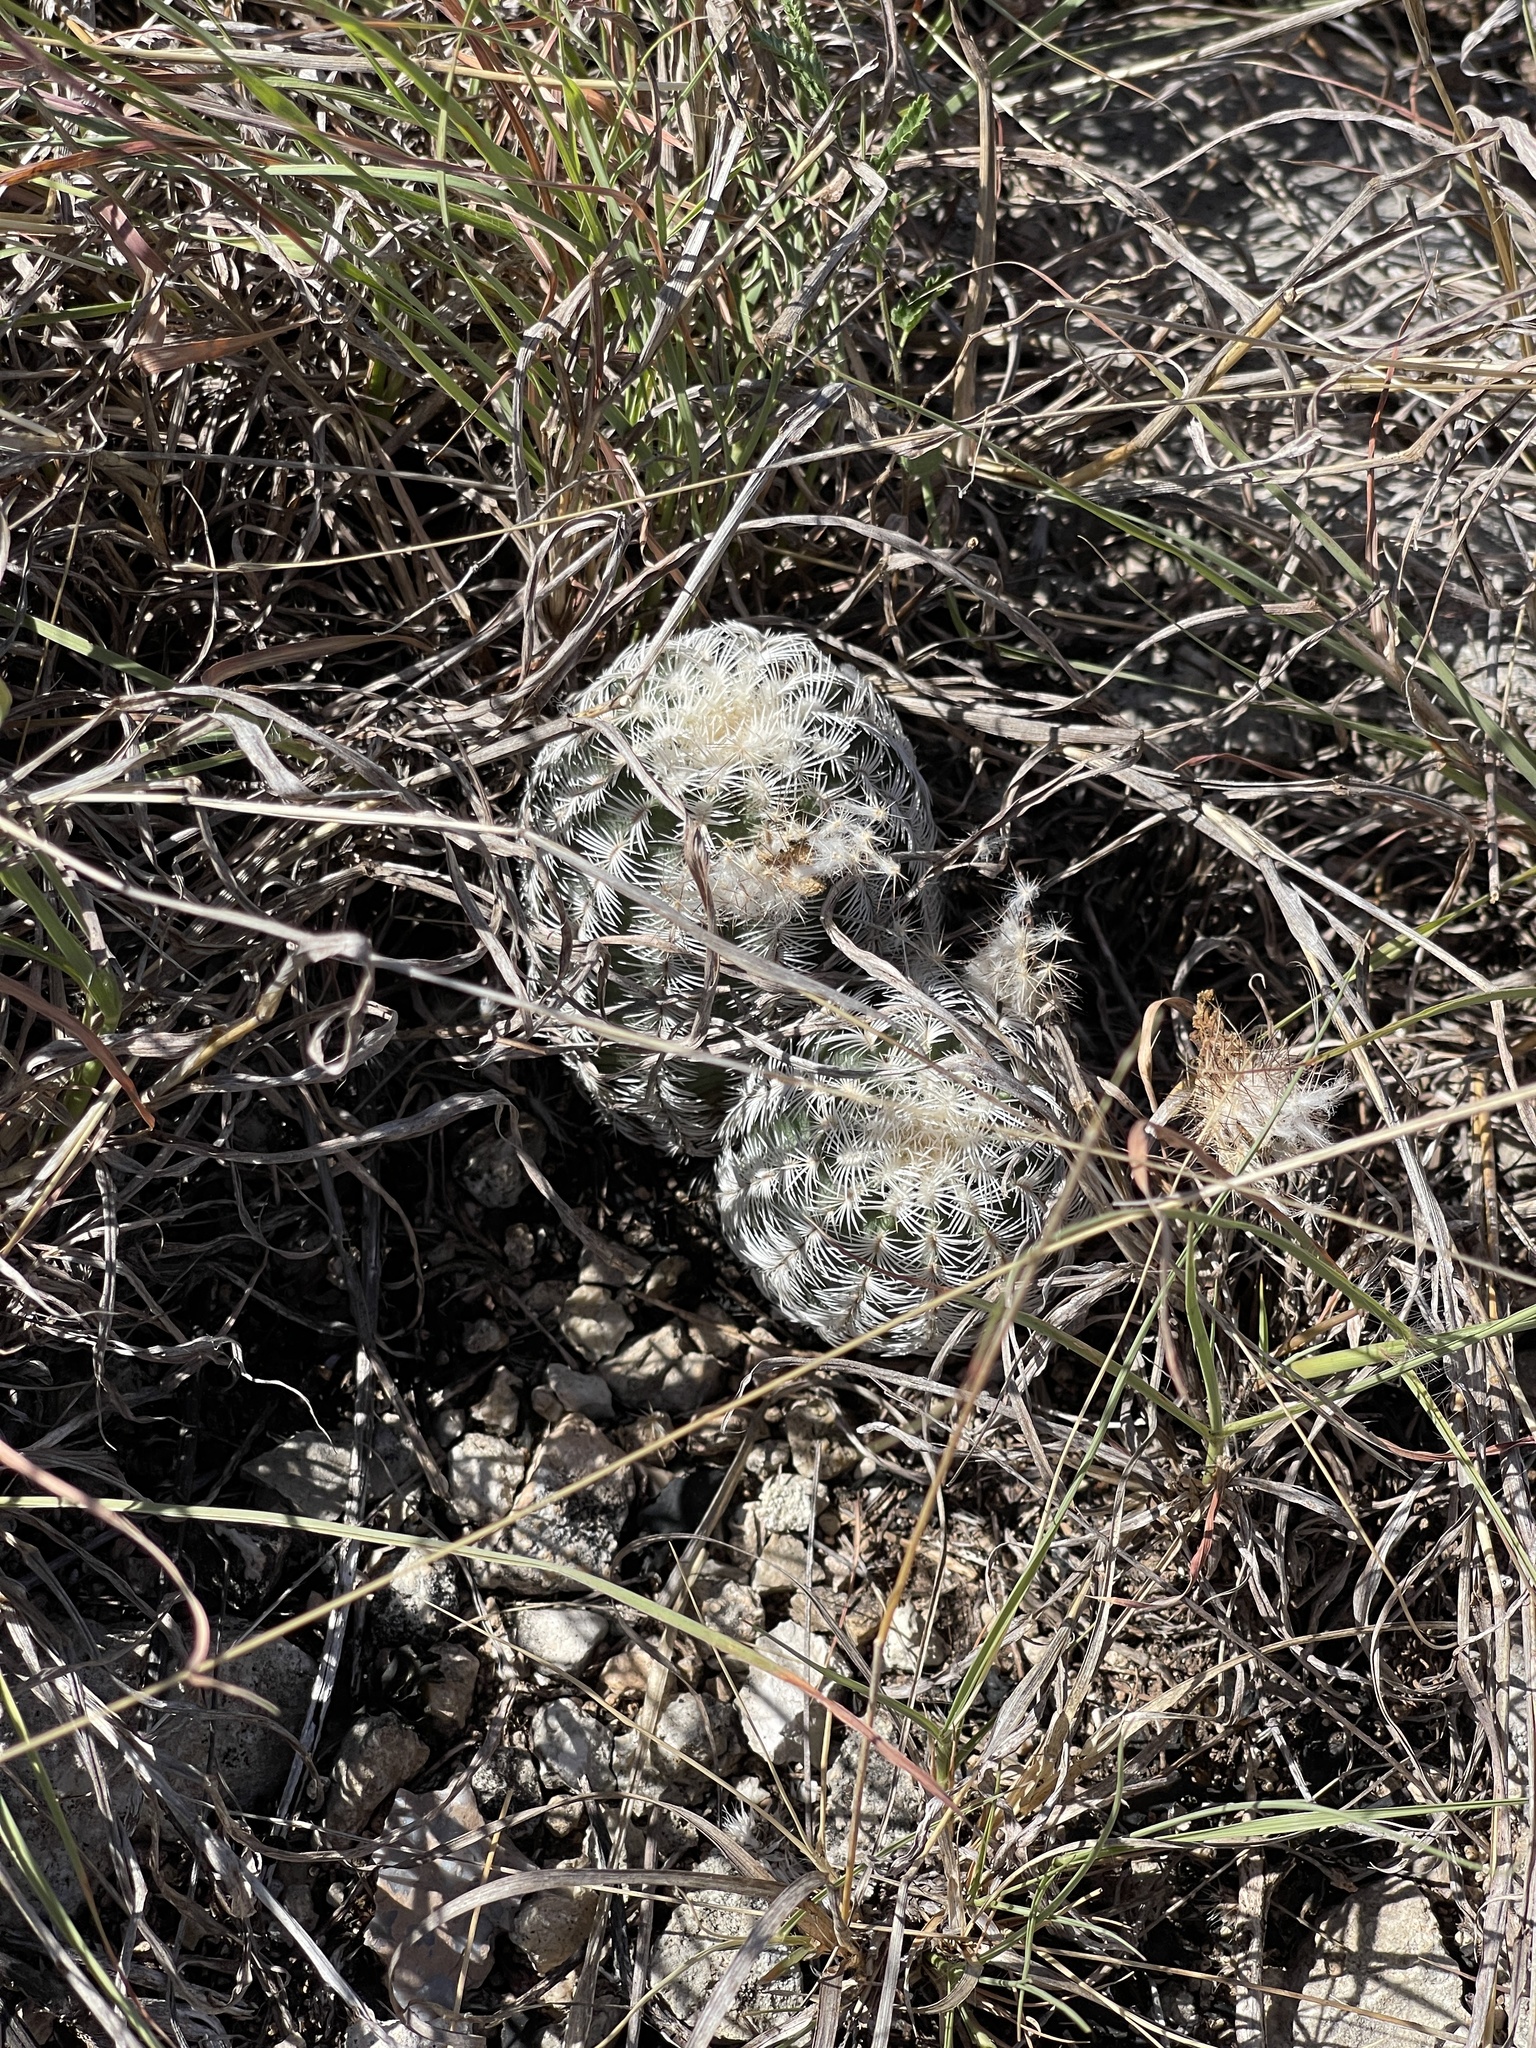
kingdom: Plantae
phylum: Tracheophyta
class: Magnoliopsida
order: Caryophyllales
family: Cactaceae
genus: Echinocereus
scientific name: Echinocereus reichenbachii
